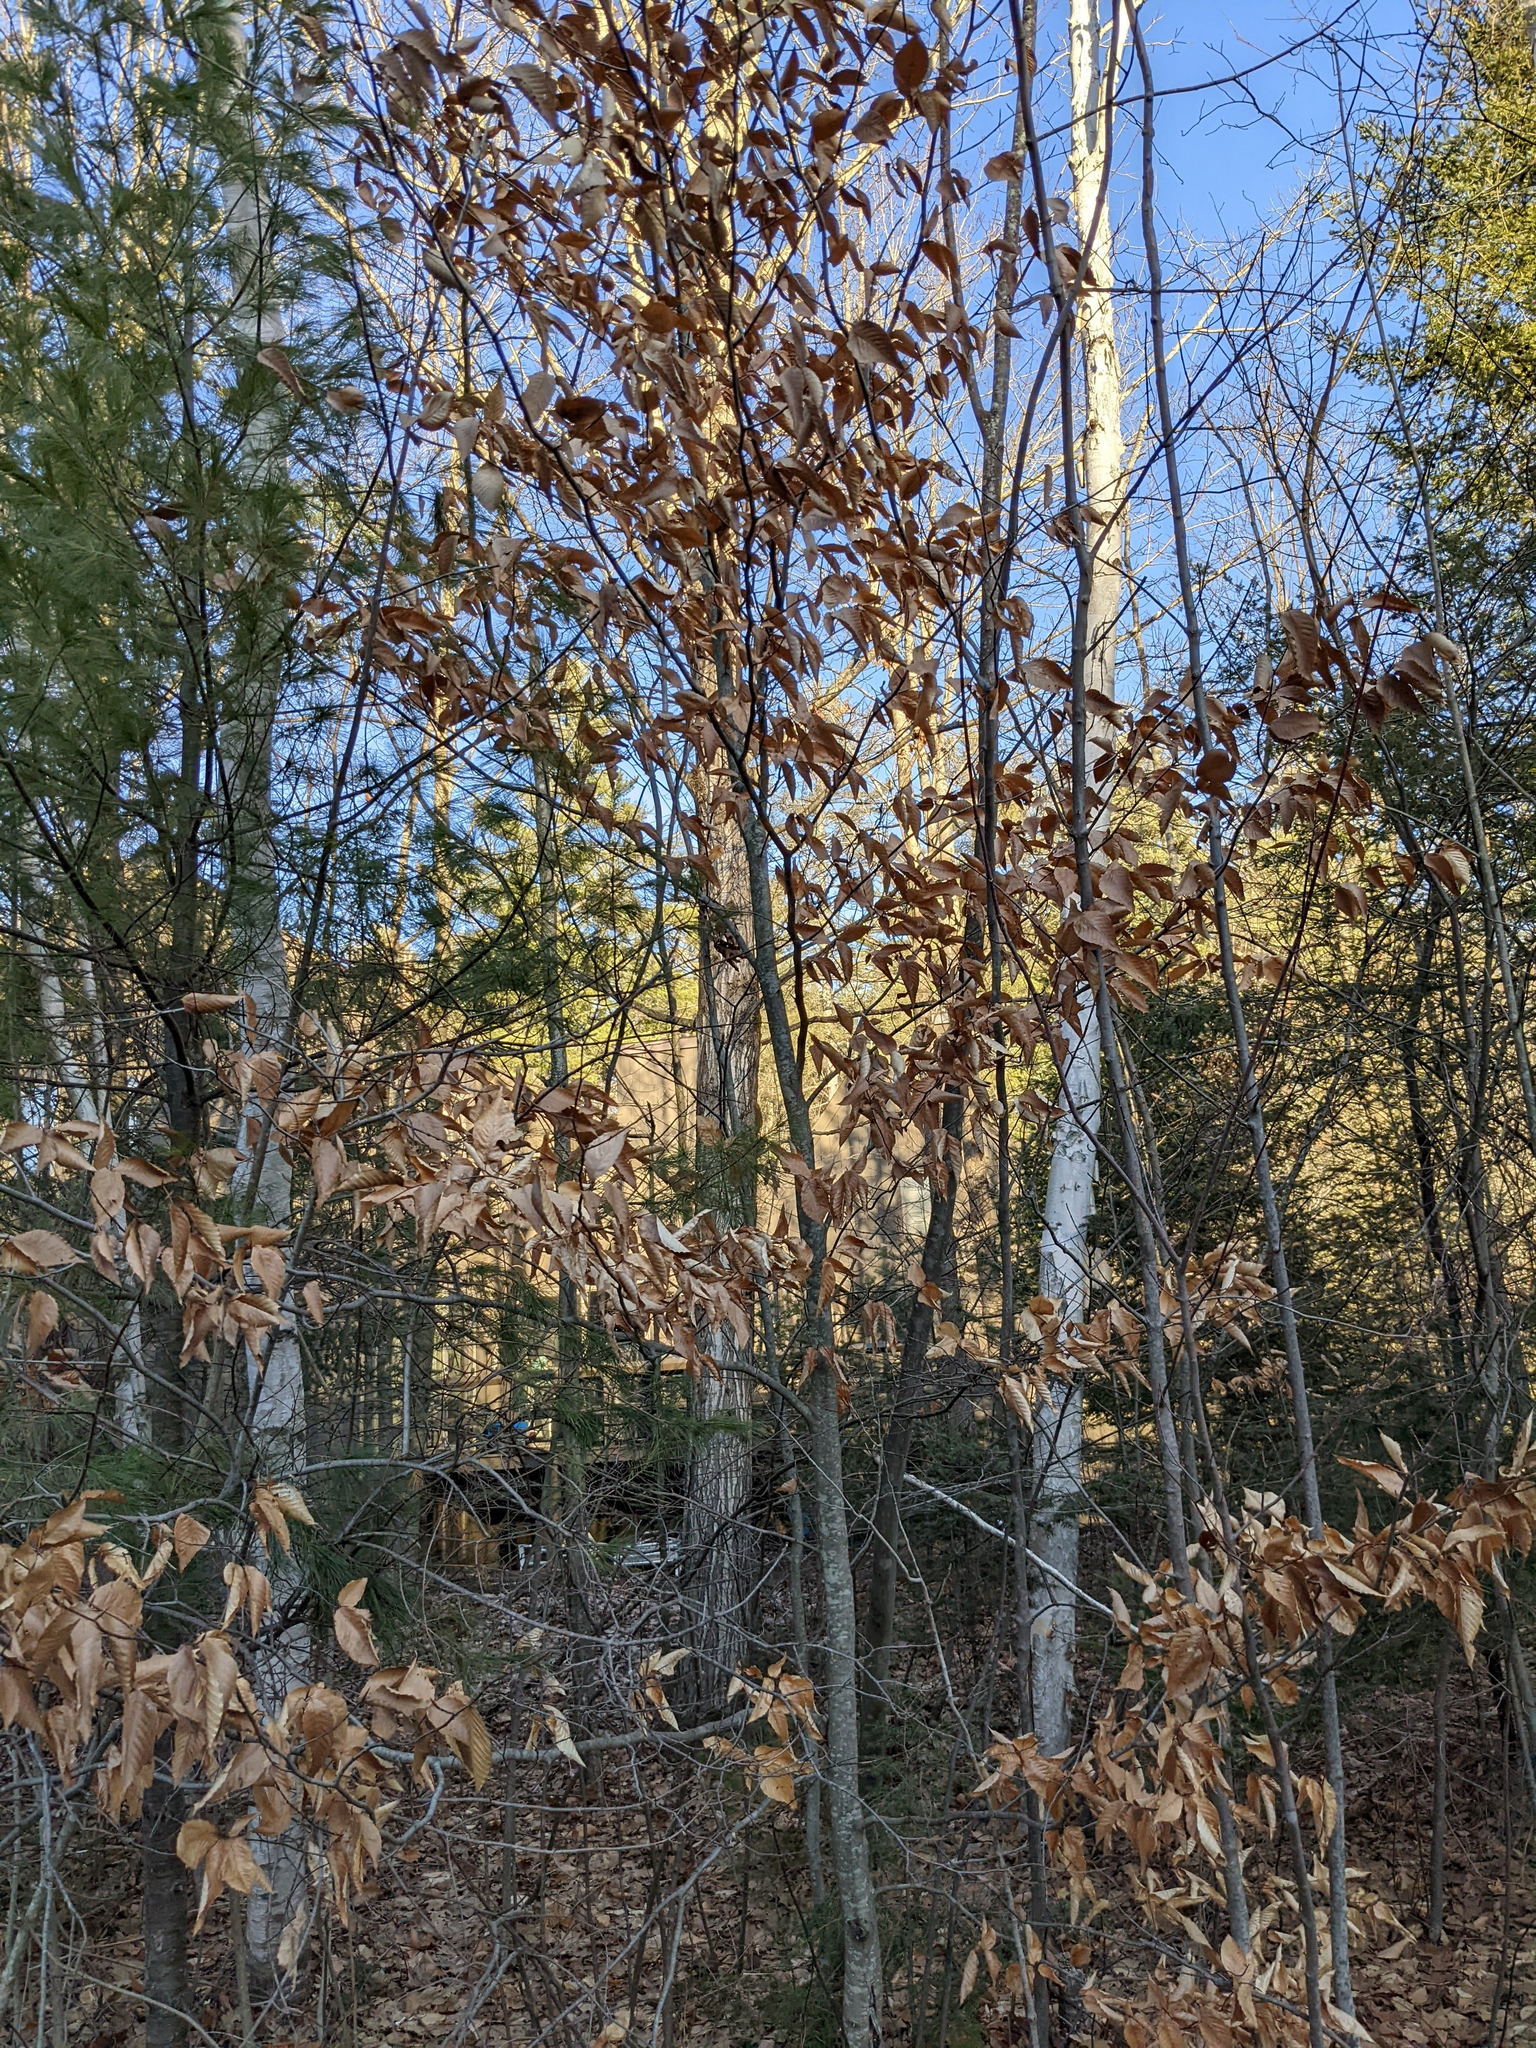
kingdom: Plantae
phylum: Tracheophyta
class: Magnoliopsida
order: Fagales
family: Fagaceae
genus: Fagus
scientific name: Fagus grandifolia
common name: American beech
